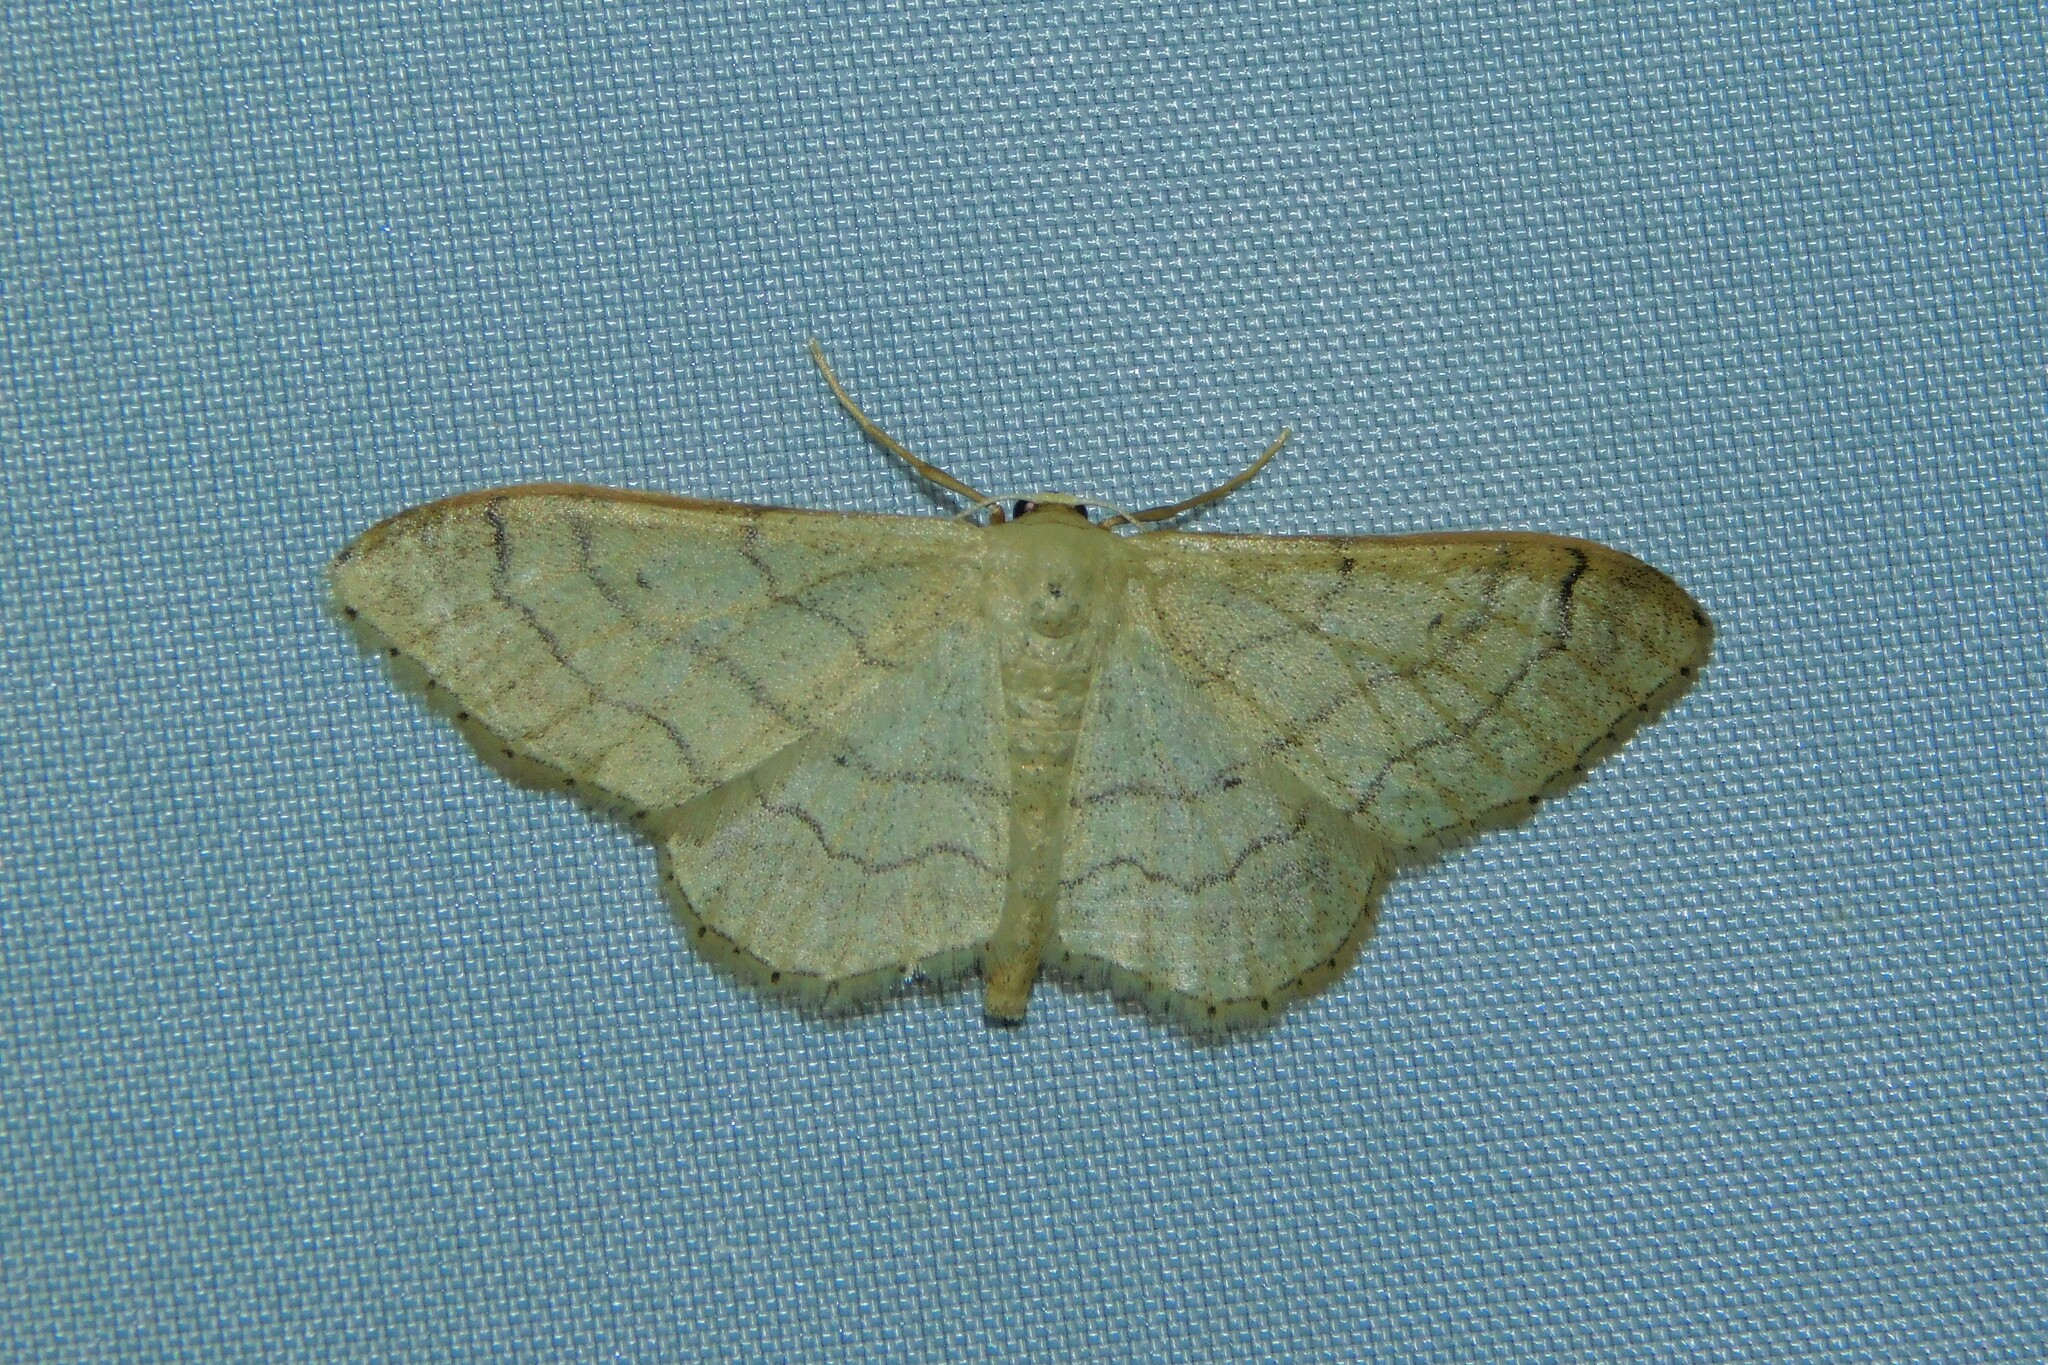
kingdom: Animalia
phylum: Arthropoda
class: Insecta
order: Lepidoptera
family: Geometridae
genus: Idaea
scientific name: Idaea aversata
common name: Riband wave
